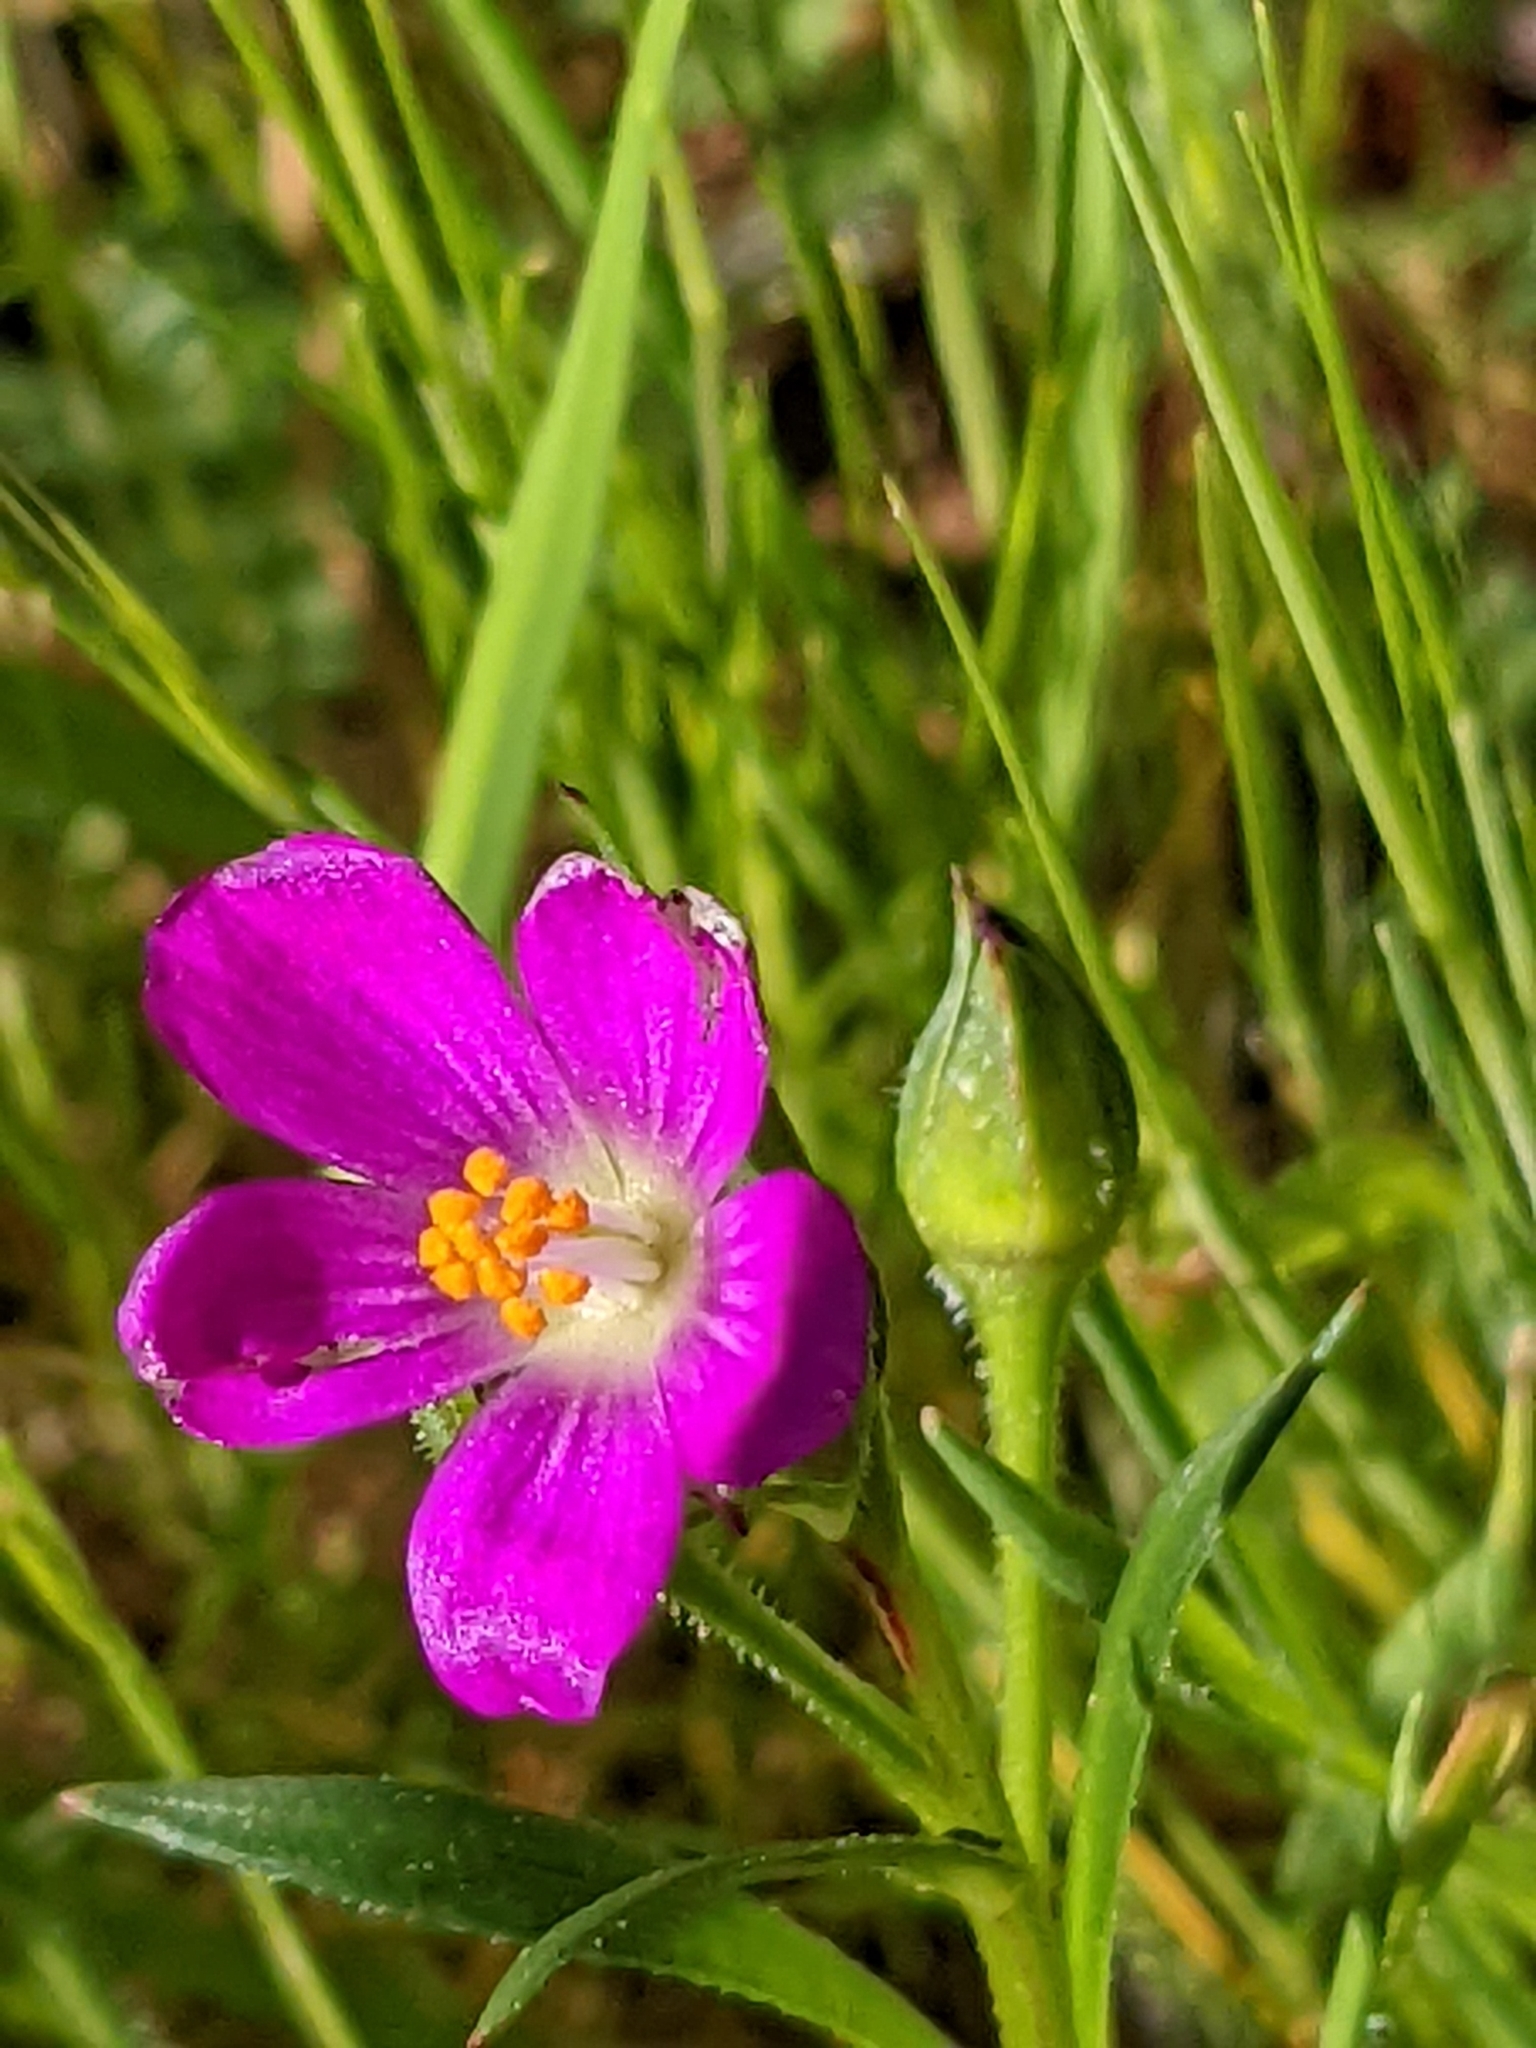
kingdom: Plantae
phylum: Tracheophyta
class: Magnoliopsida
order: Caryophyllales
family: Montiaceae
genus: Calandrinia
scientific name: Calandrinia menziesii
